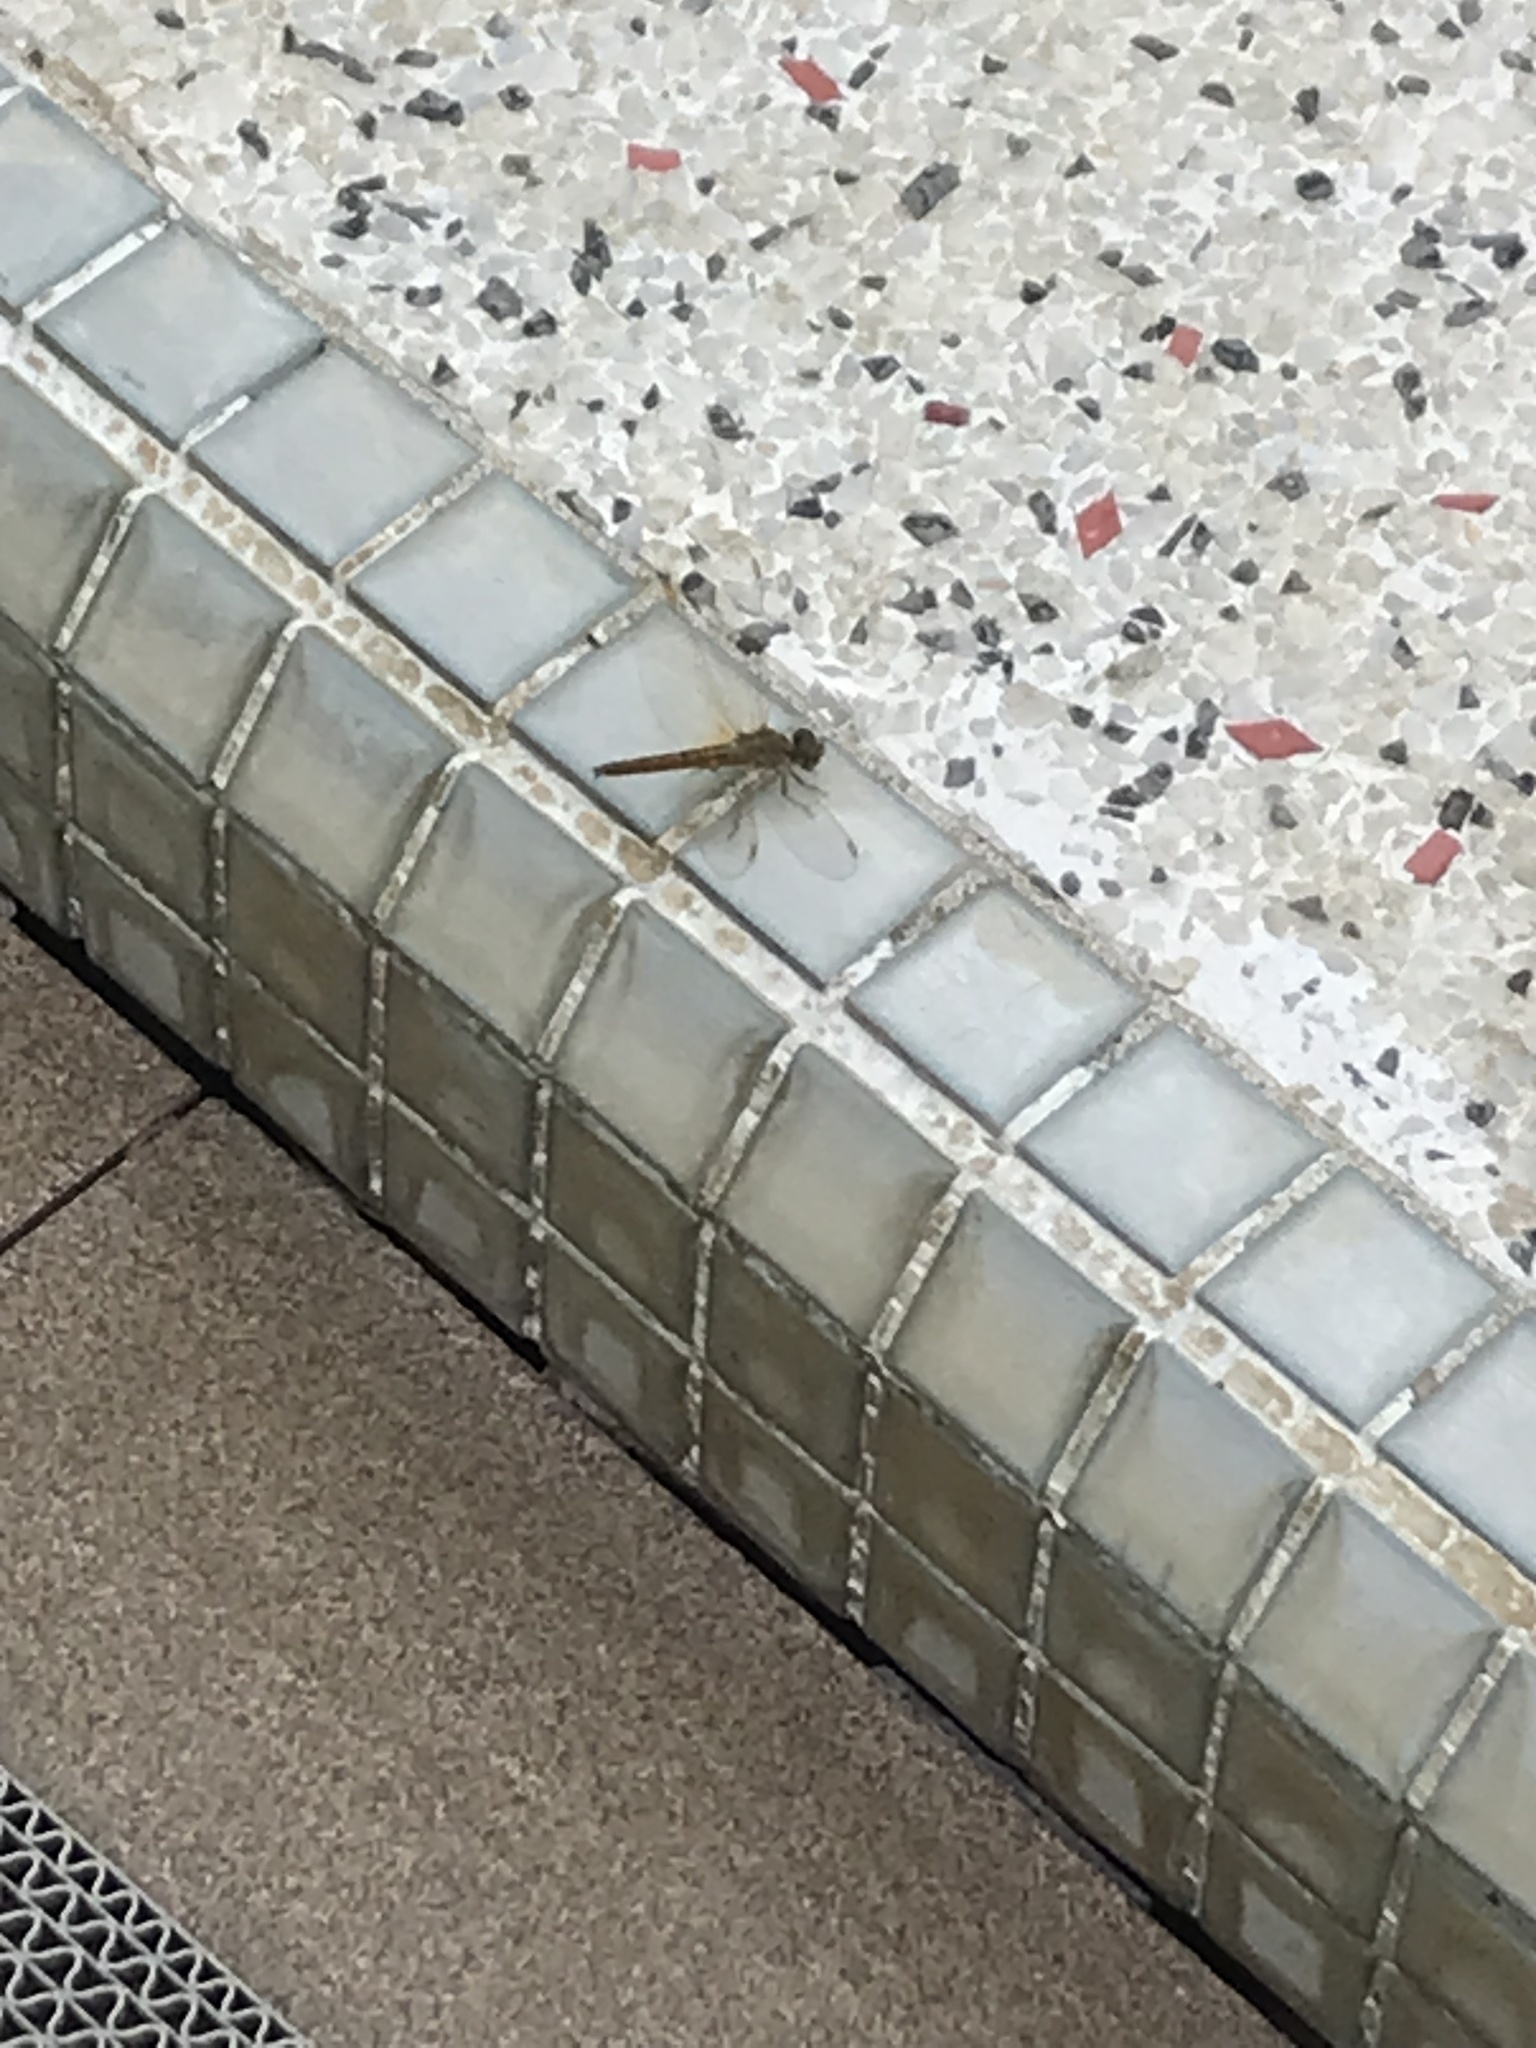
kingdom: Animalia
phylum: Arthropoda
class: Insecta
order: Odonata
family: Libellulidae
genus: Brachythemis
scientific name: Brachythemis contaminata
